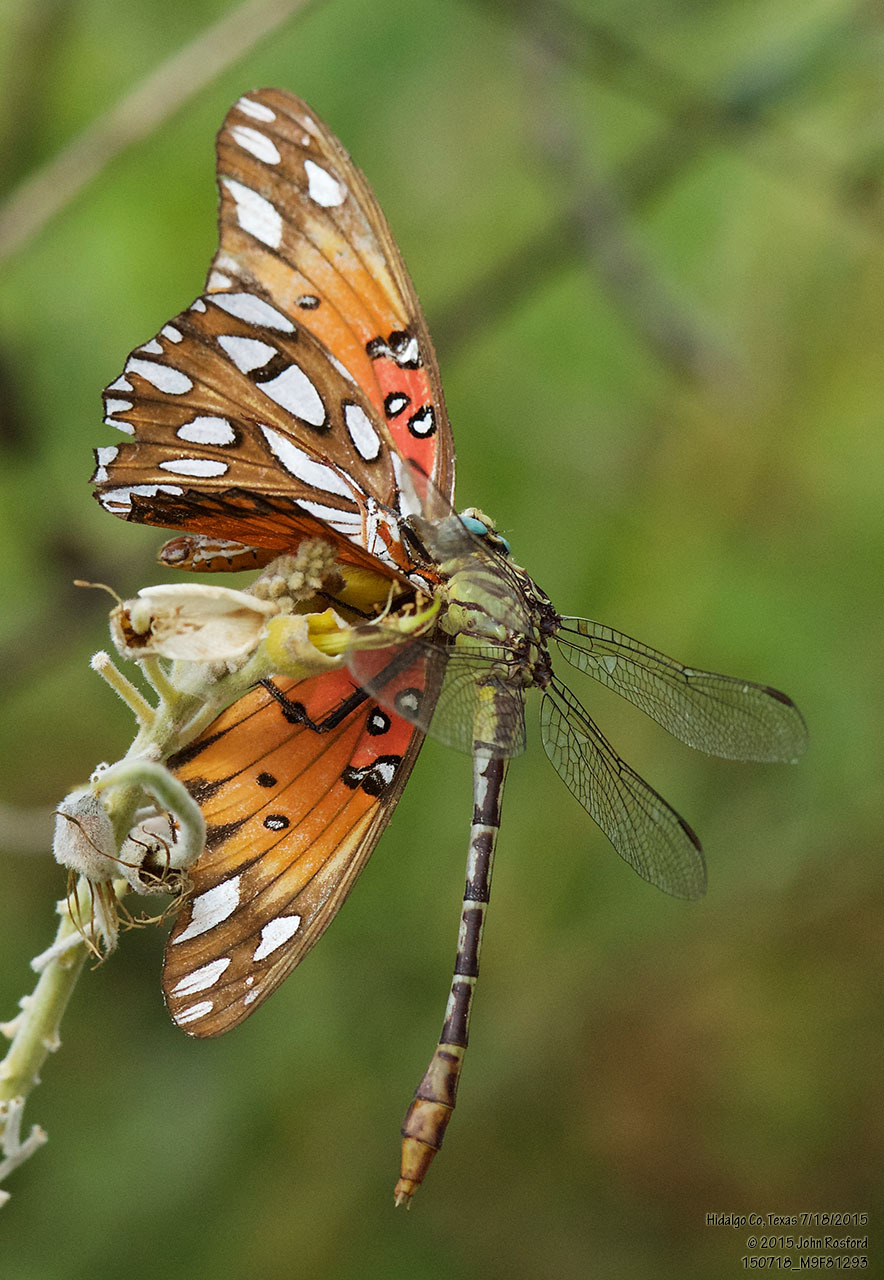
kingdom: Animalia
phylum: Arthropoda
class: Insecta
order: Odonata
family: Gomphidae
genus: Dromogomphus
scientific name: Dromogomphus spoliatus
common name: Flag-tailed spinyleg
